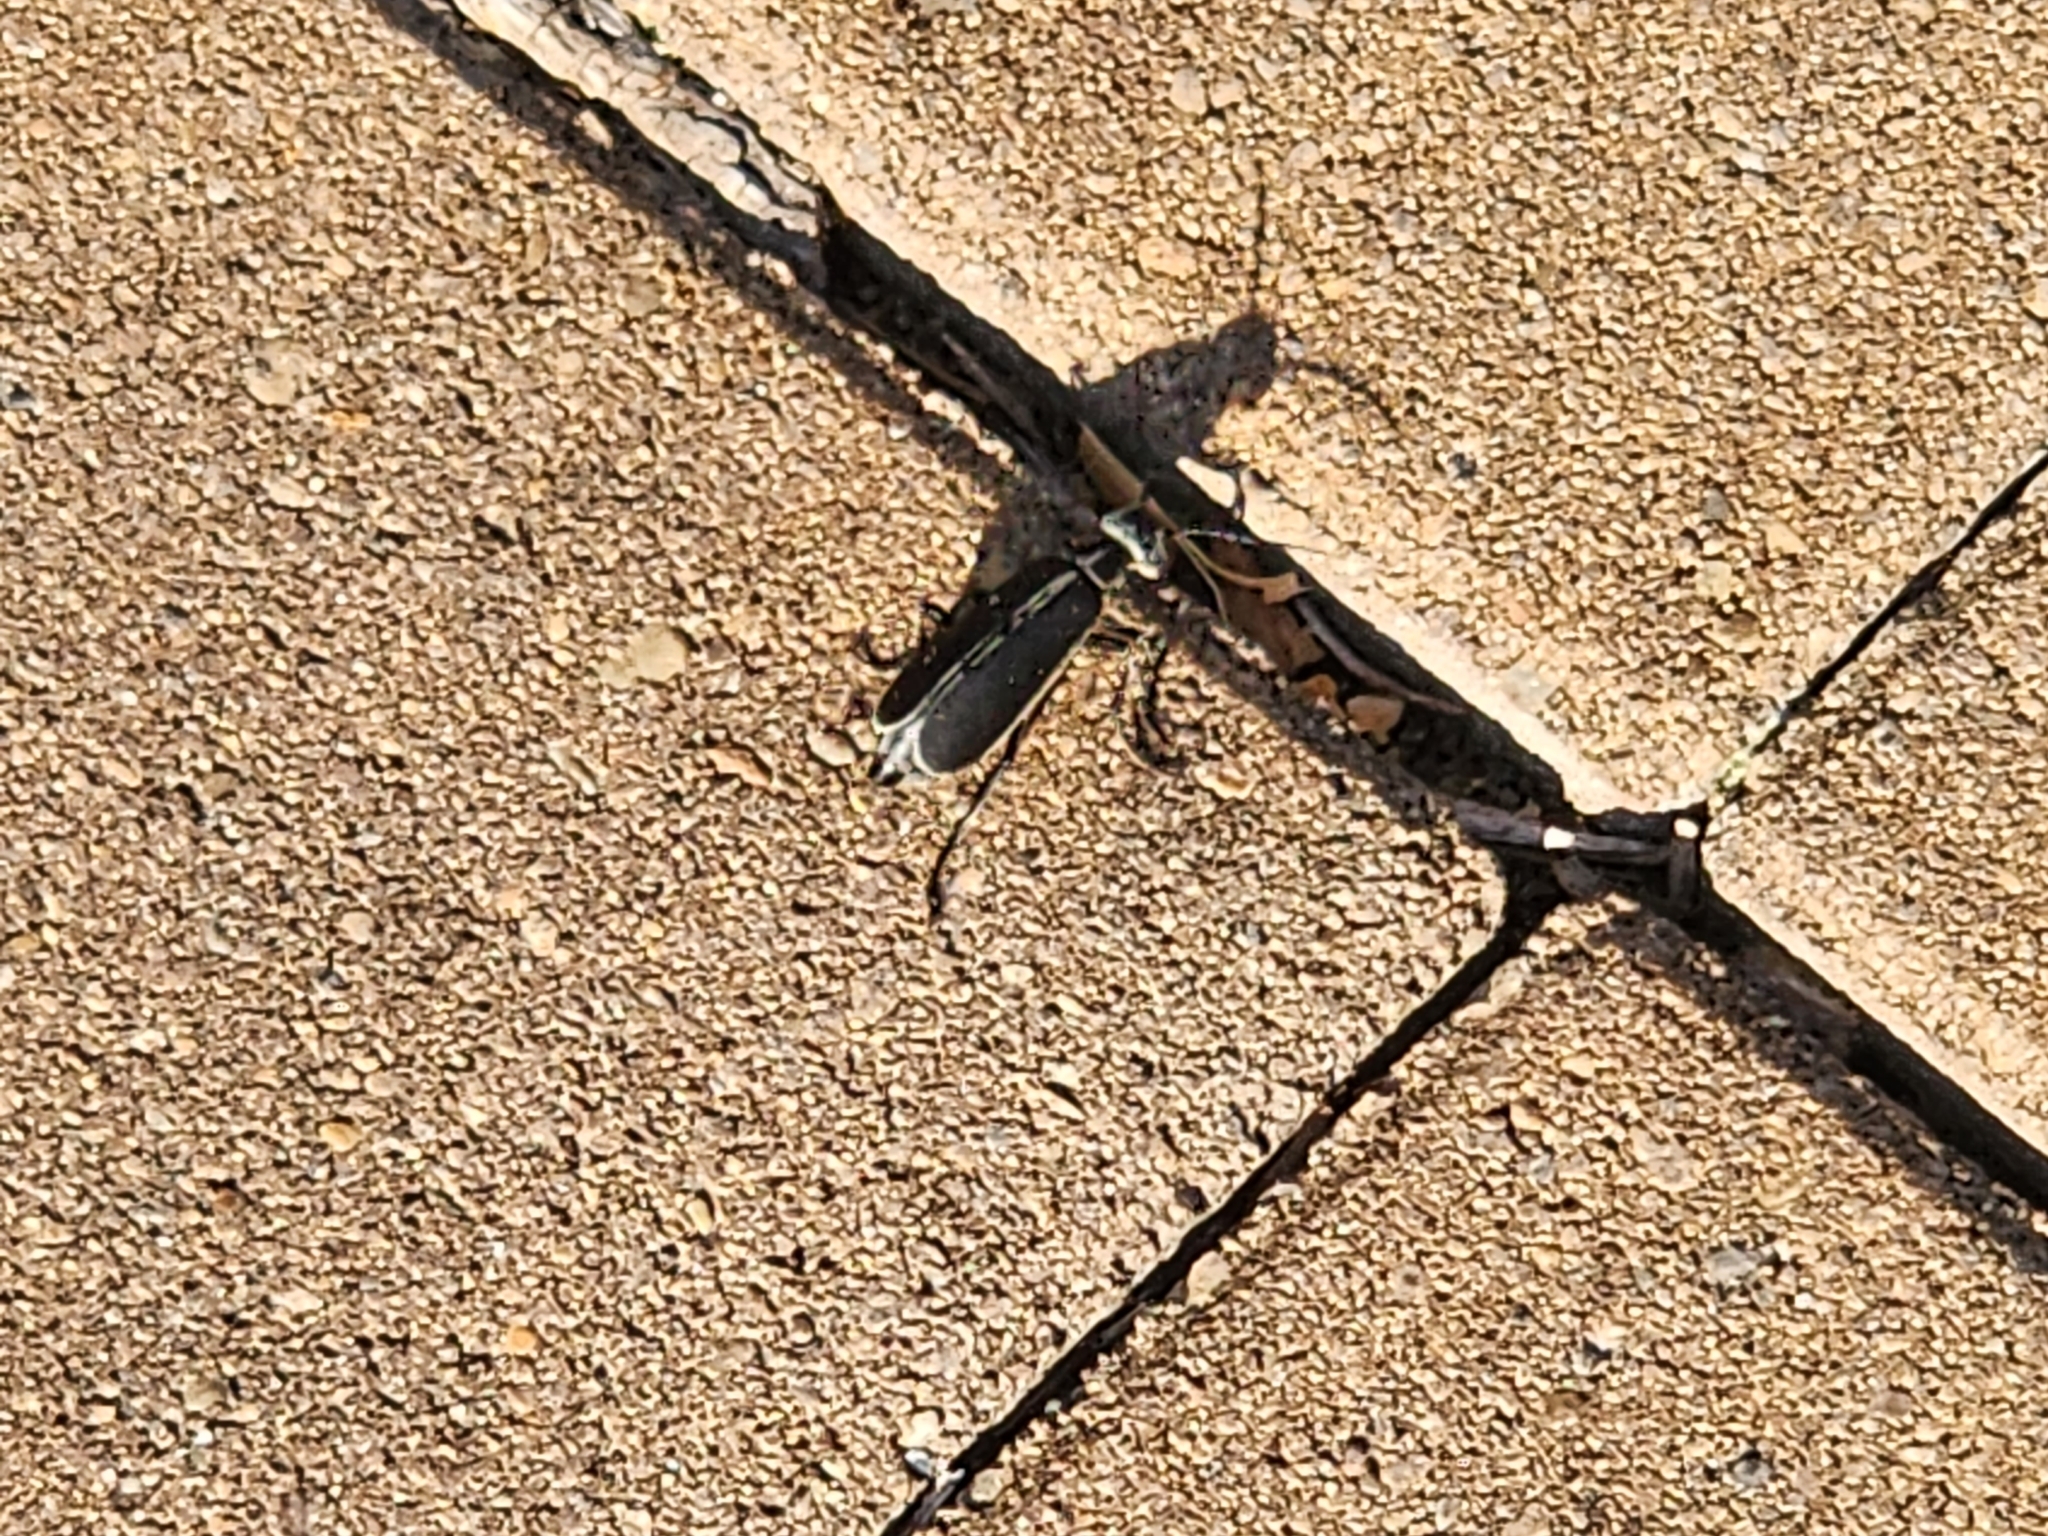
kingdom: Animalia
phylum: Arthropoda
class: Insecta
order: Coleoptera
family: Meloidae
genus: Epicauta
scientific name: Epicauta funebris
